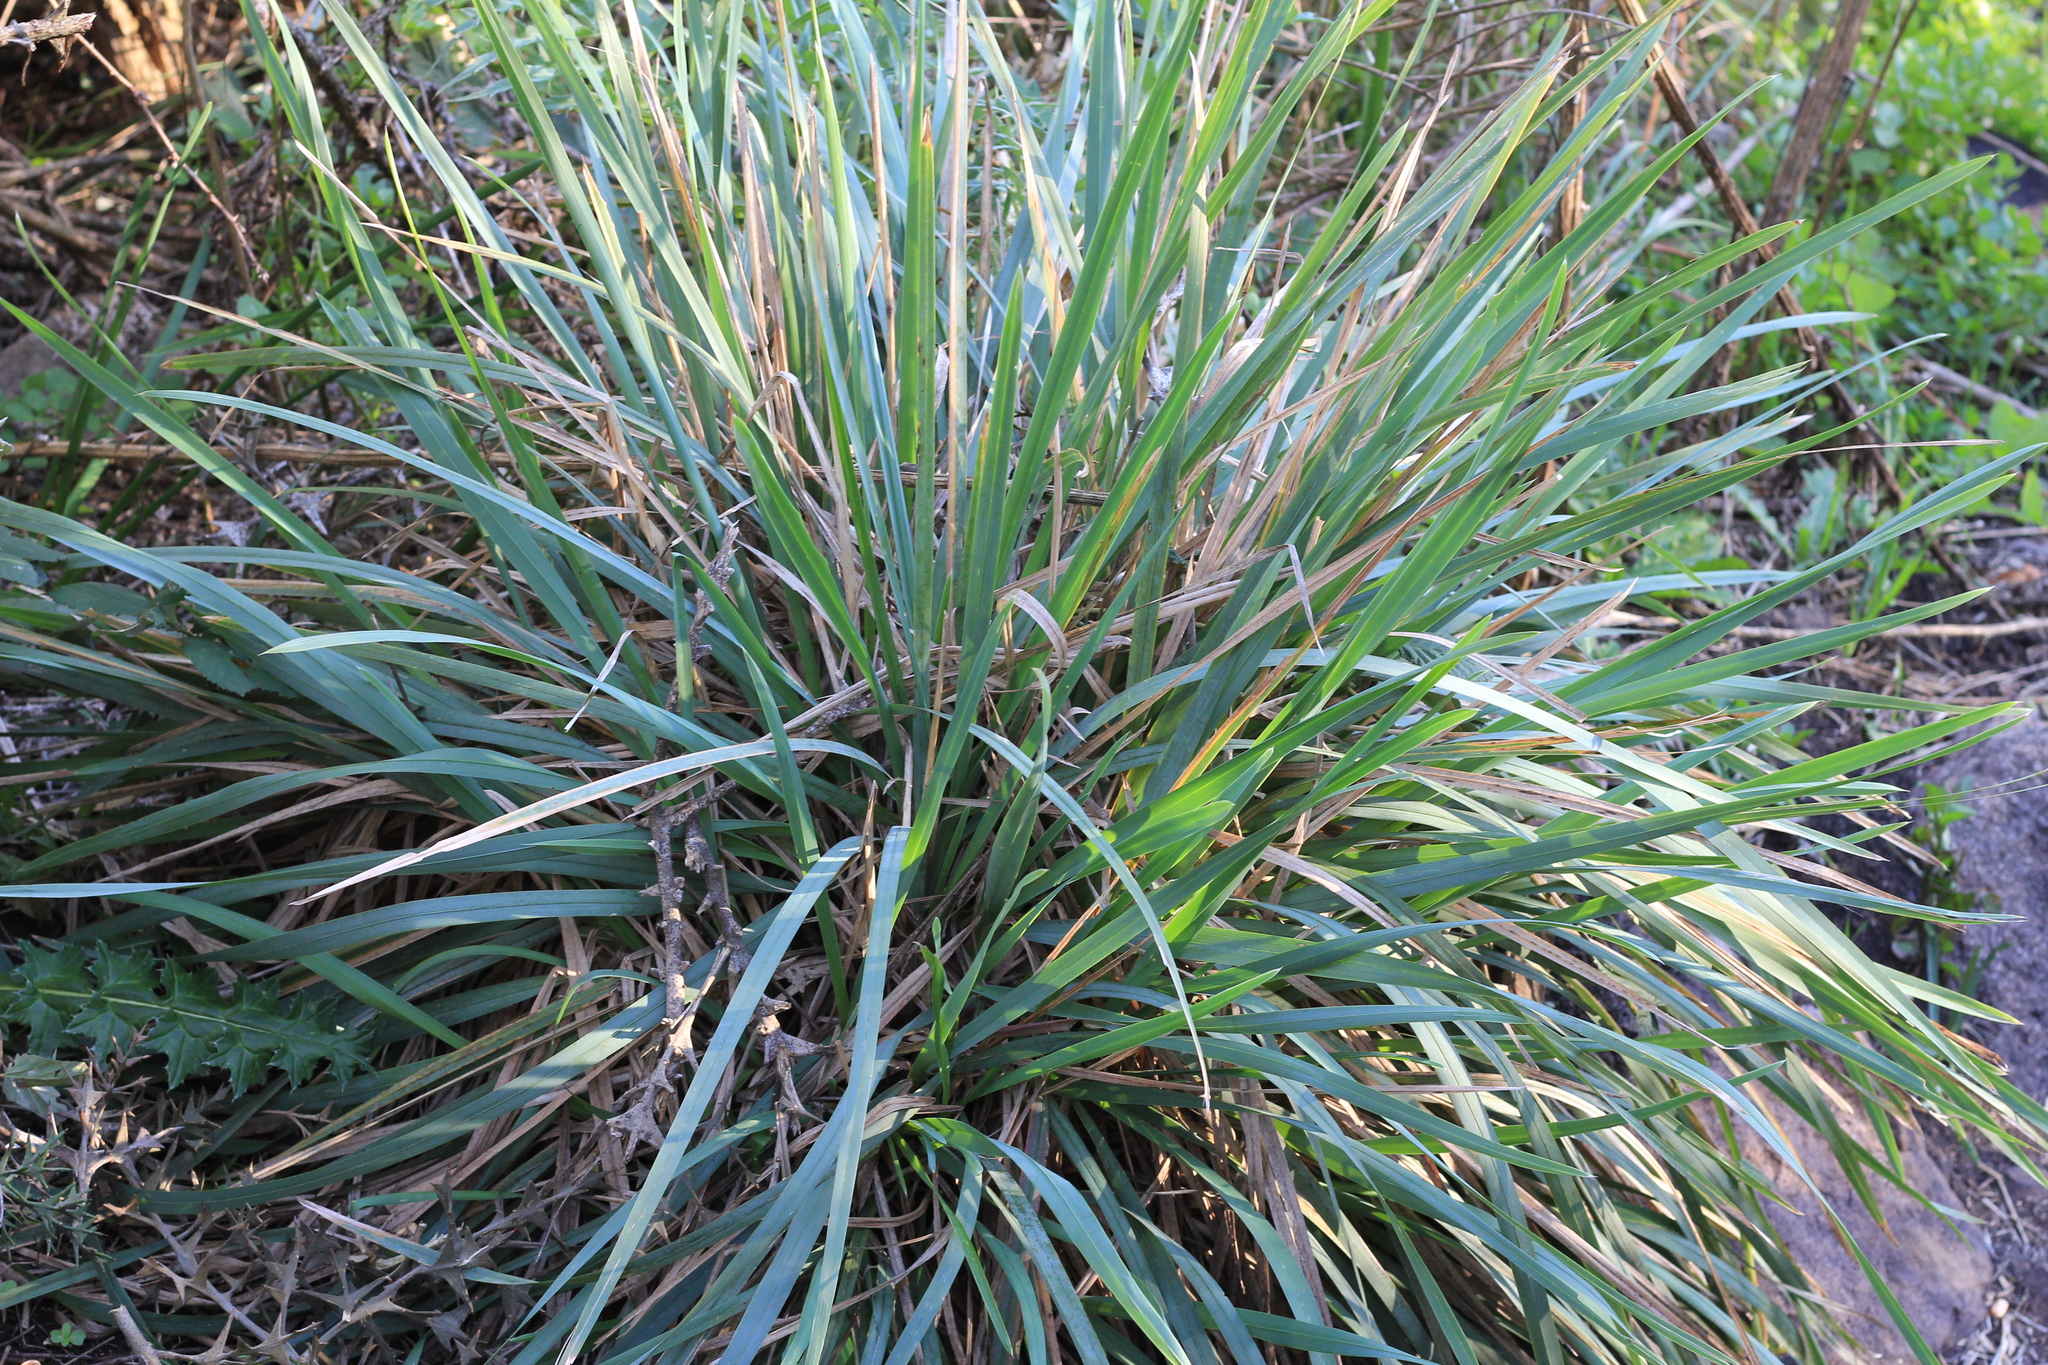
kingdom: Plantae
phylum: Tracheophyta
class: Liliopsida
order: Poales
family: Poaceae
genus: Poa
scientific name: Poa iridifolia
